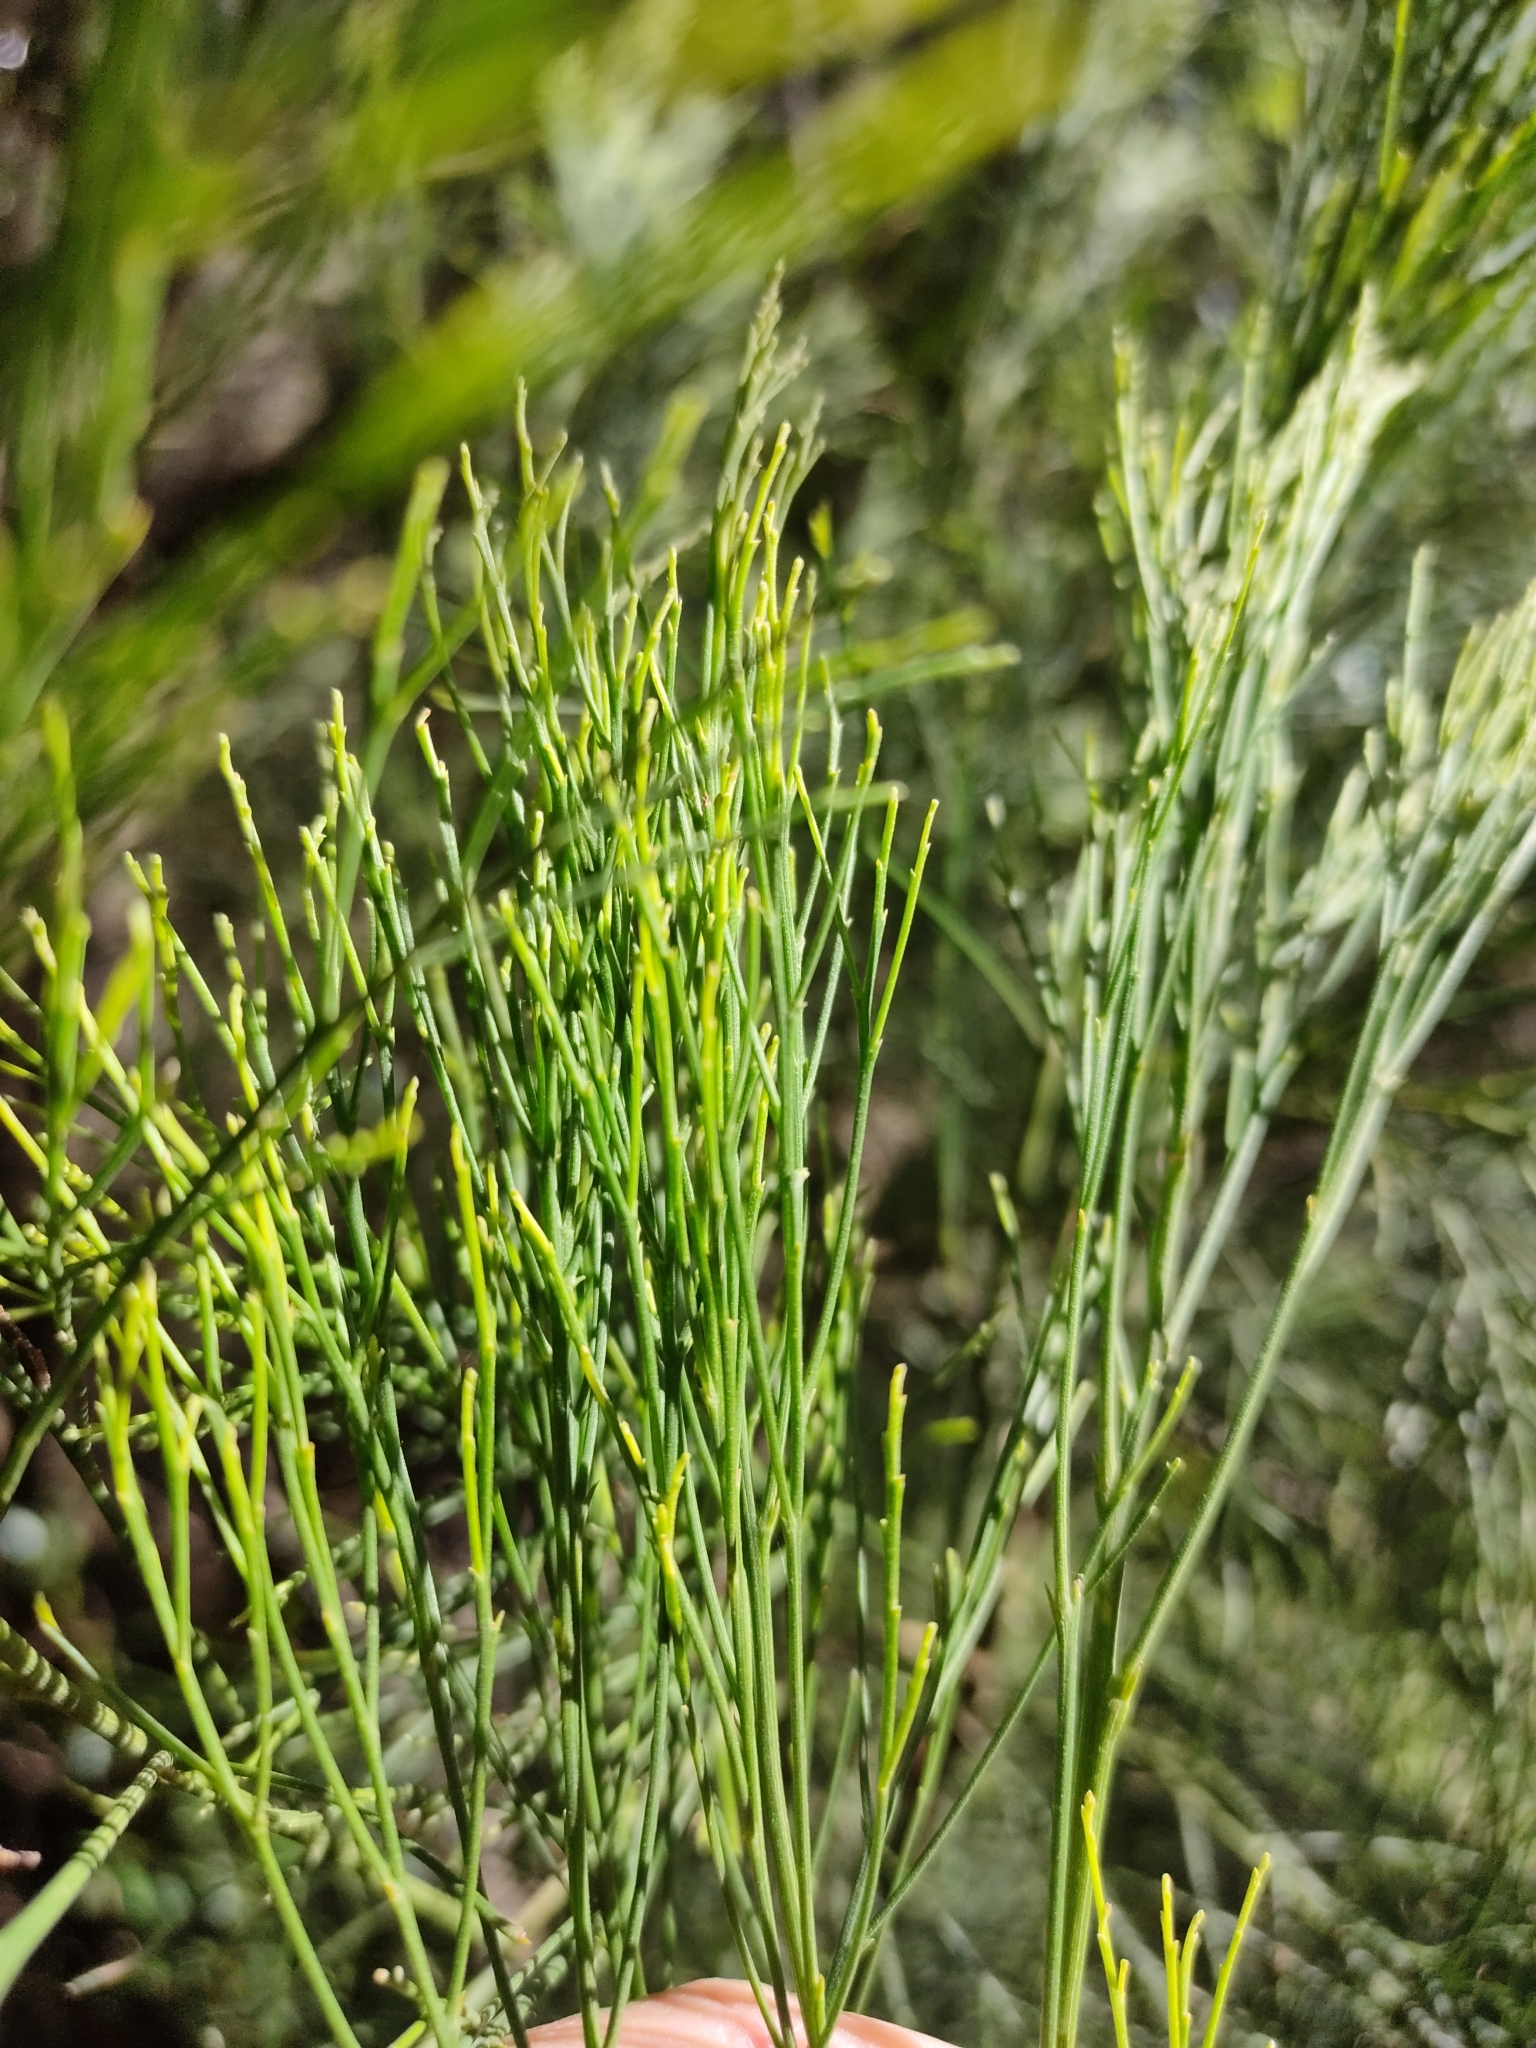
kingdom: Plantae
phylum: Tracheophyta
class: Magnoliopsida
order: Santalales
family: Santalaceae
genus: Exocarpos
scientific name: Exocarpos cupressiformis
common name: Cherry ballart
